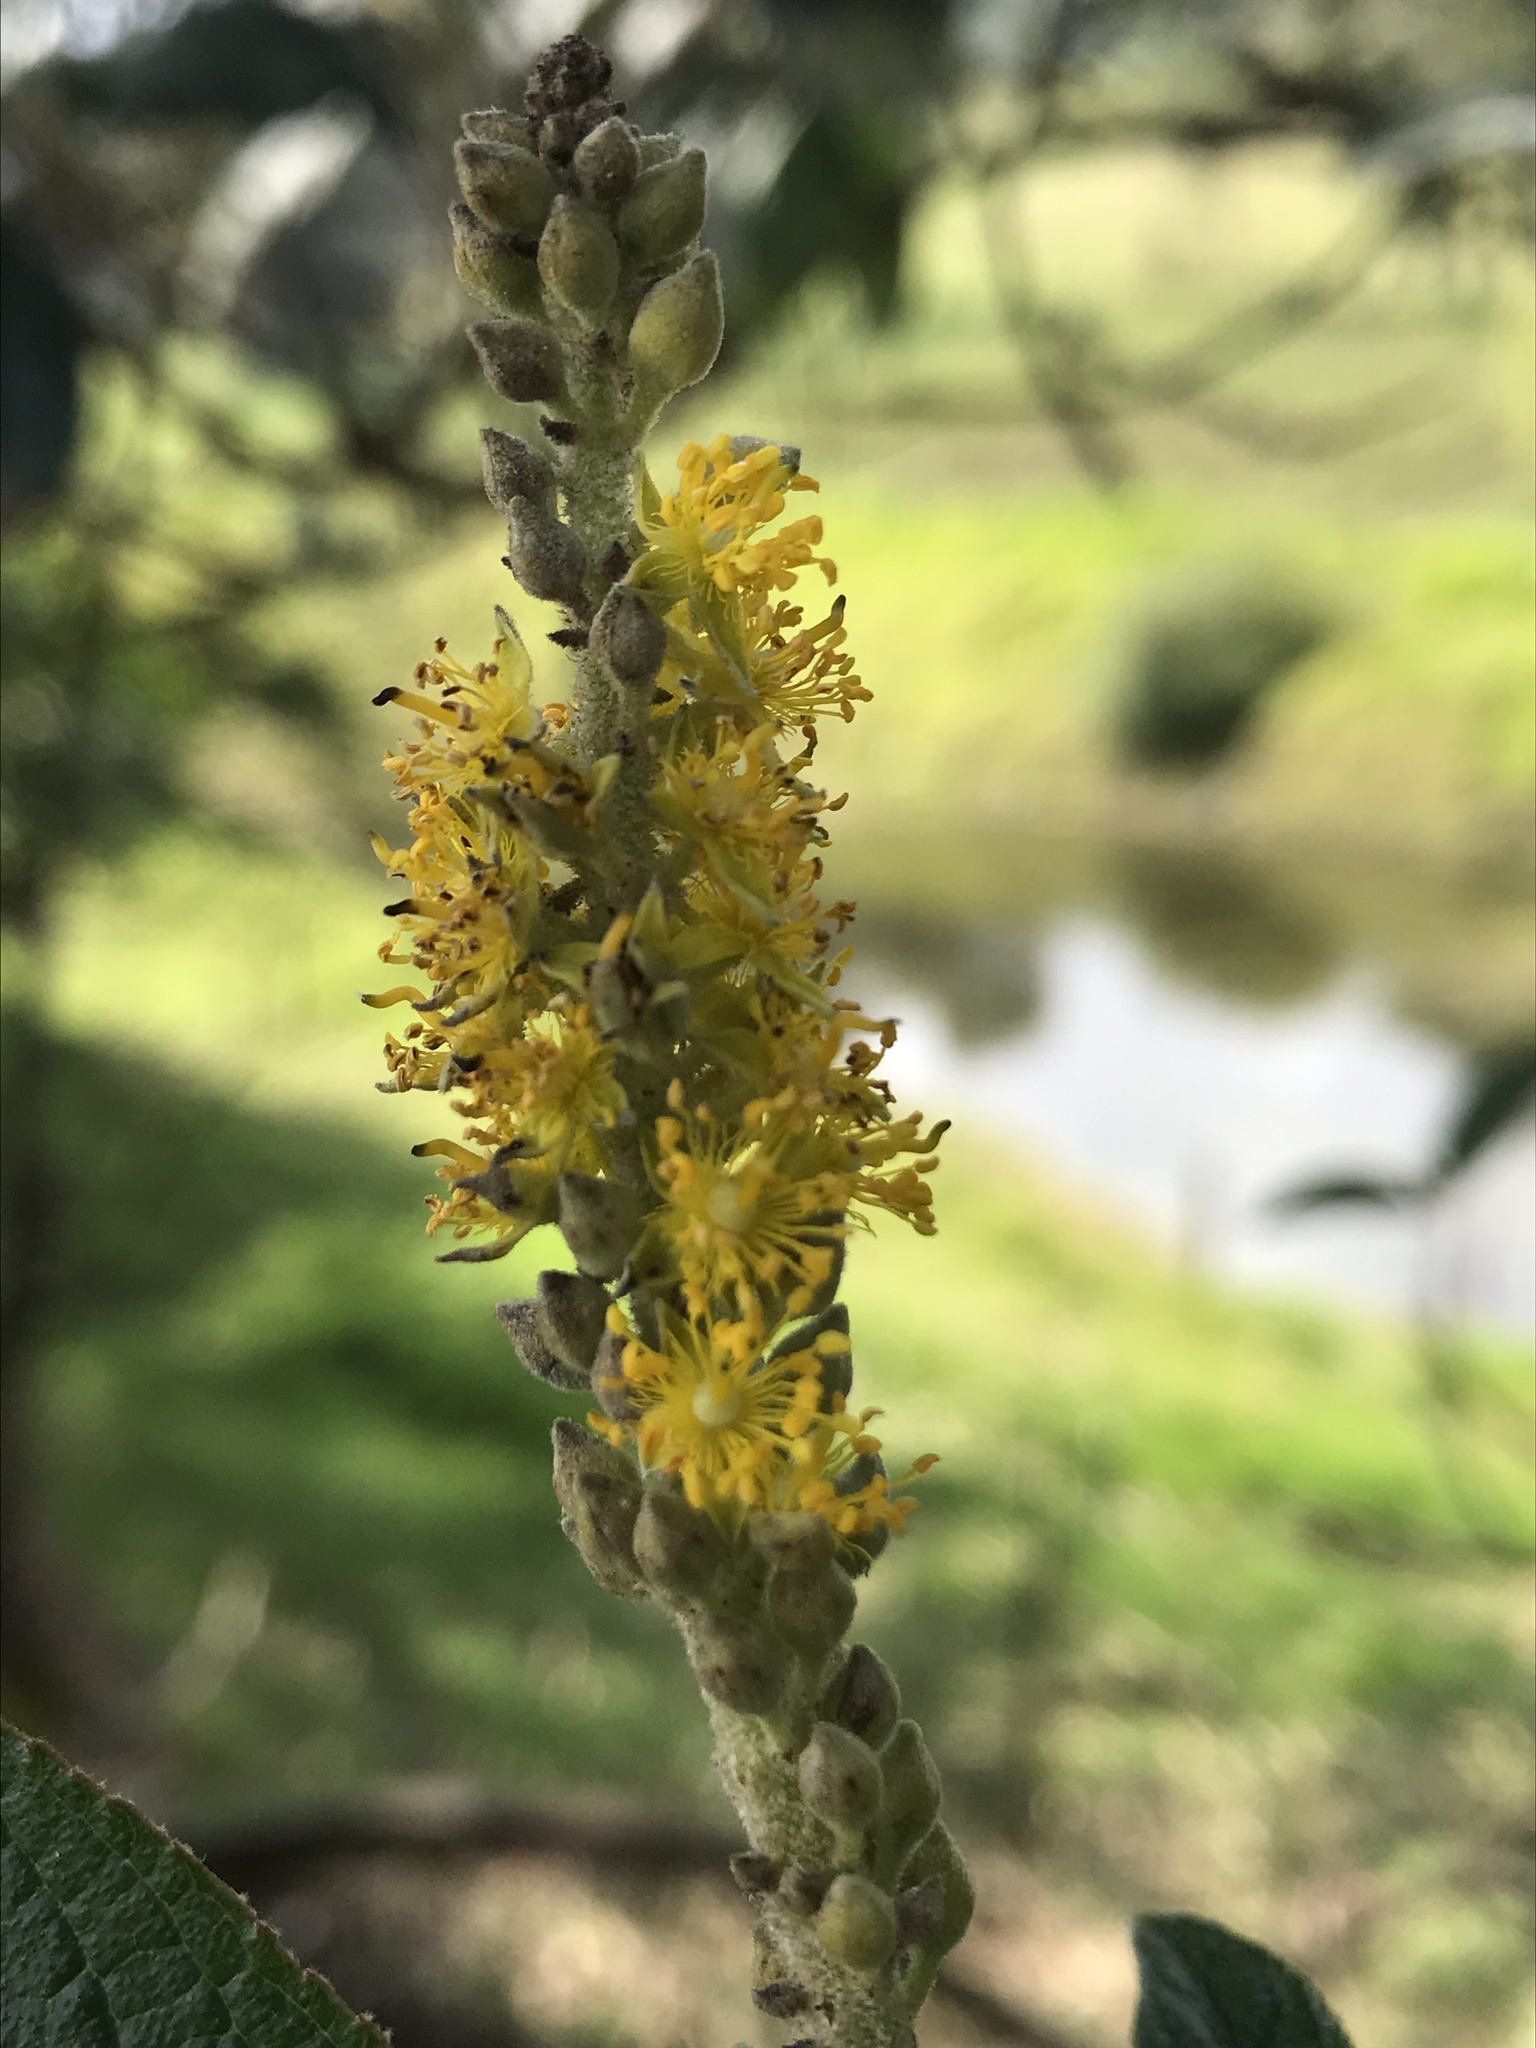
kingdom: Plantae
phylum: Tracheophyta
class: Magnoliopsida
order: Malpighiales
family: Salicaceae
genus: Abatia
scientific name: Abatia parviflora
